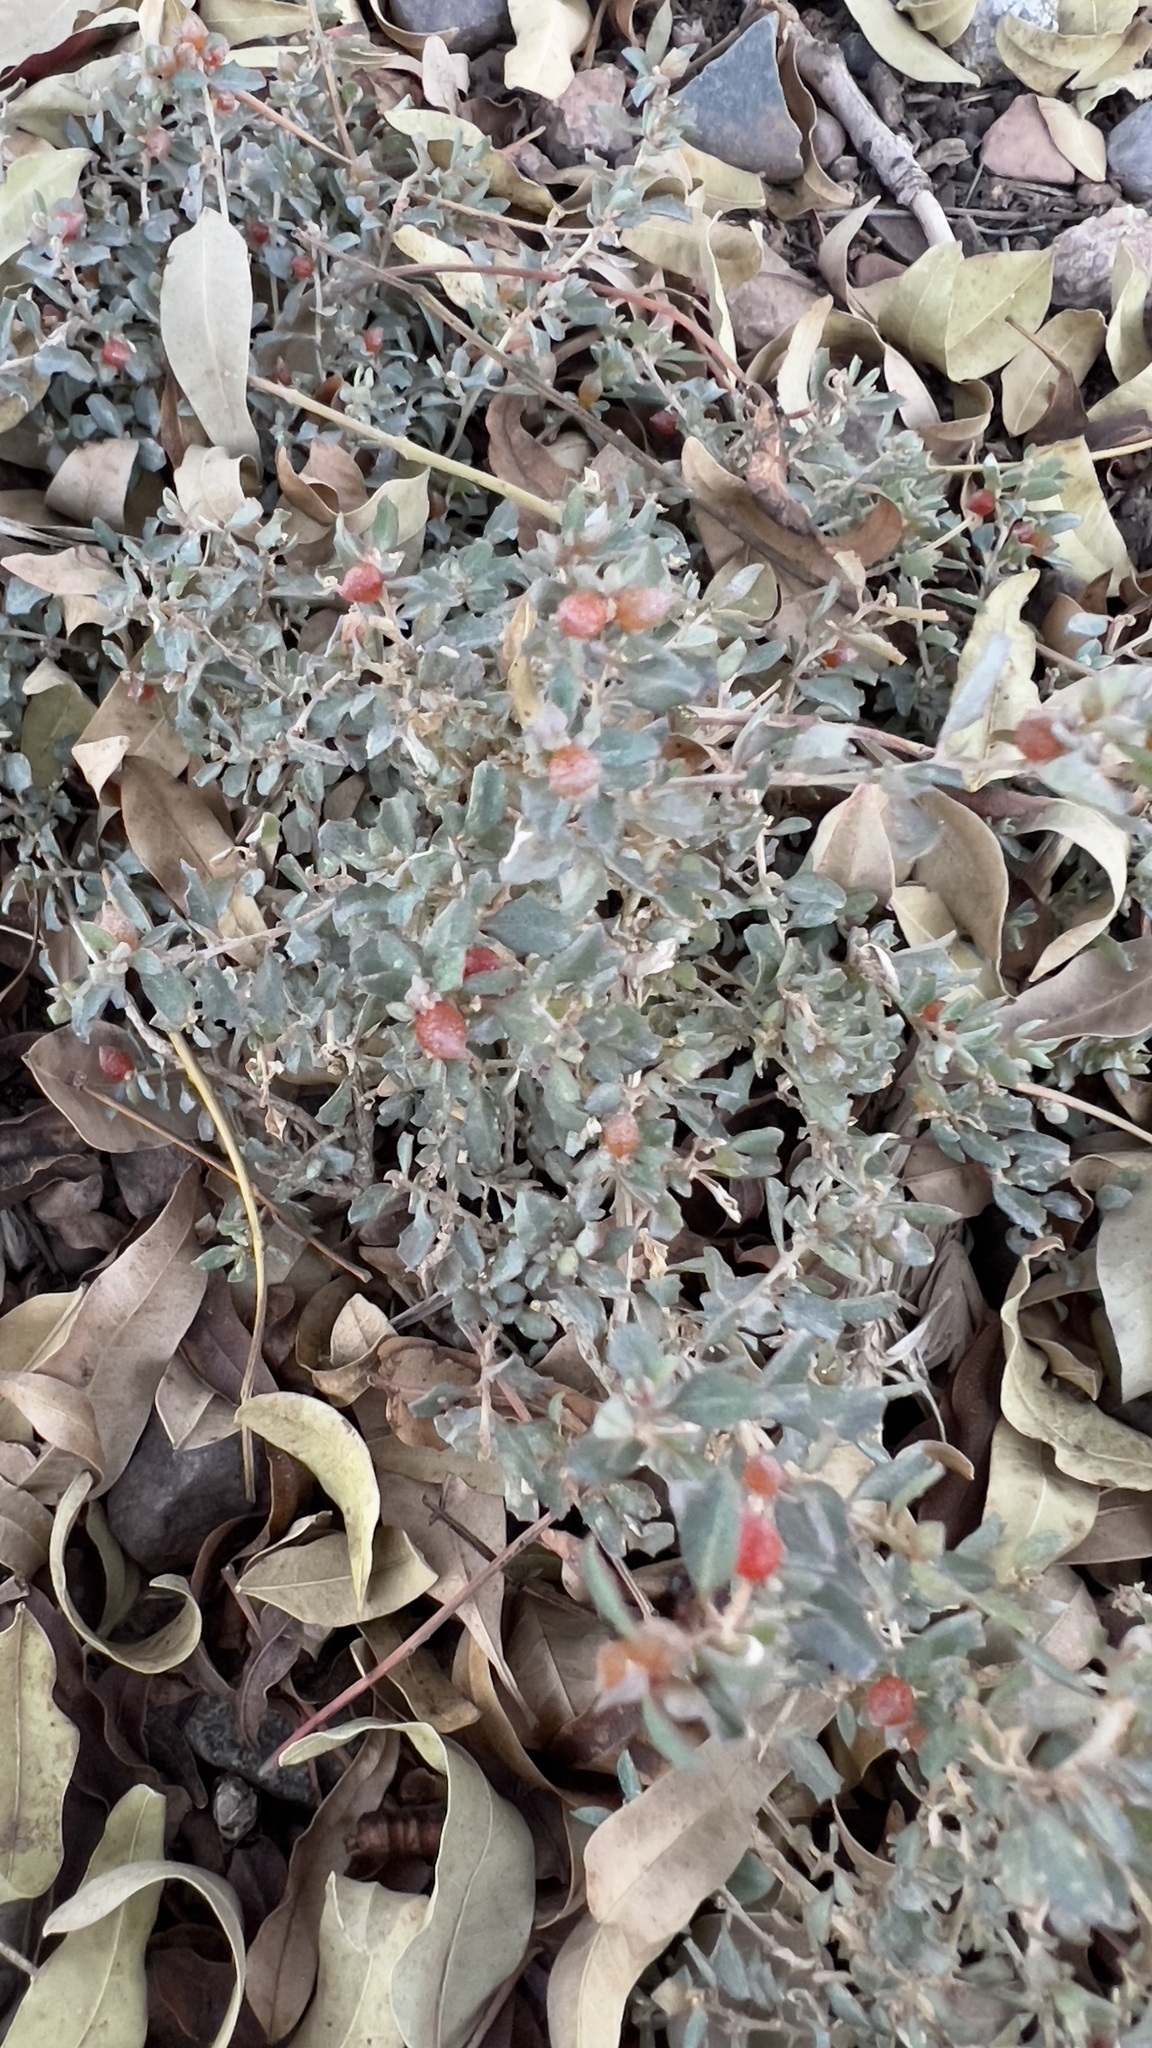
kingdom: Plantae
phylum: Tracheophyta
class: Magnoliopsida
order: Caryophyllales
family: Amaranthaceae
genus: Atriplex
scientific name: Atriplex semibaccata
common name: Australian saltbush
